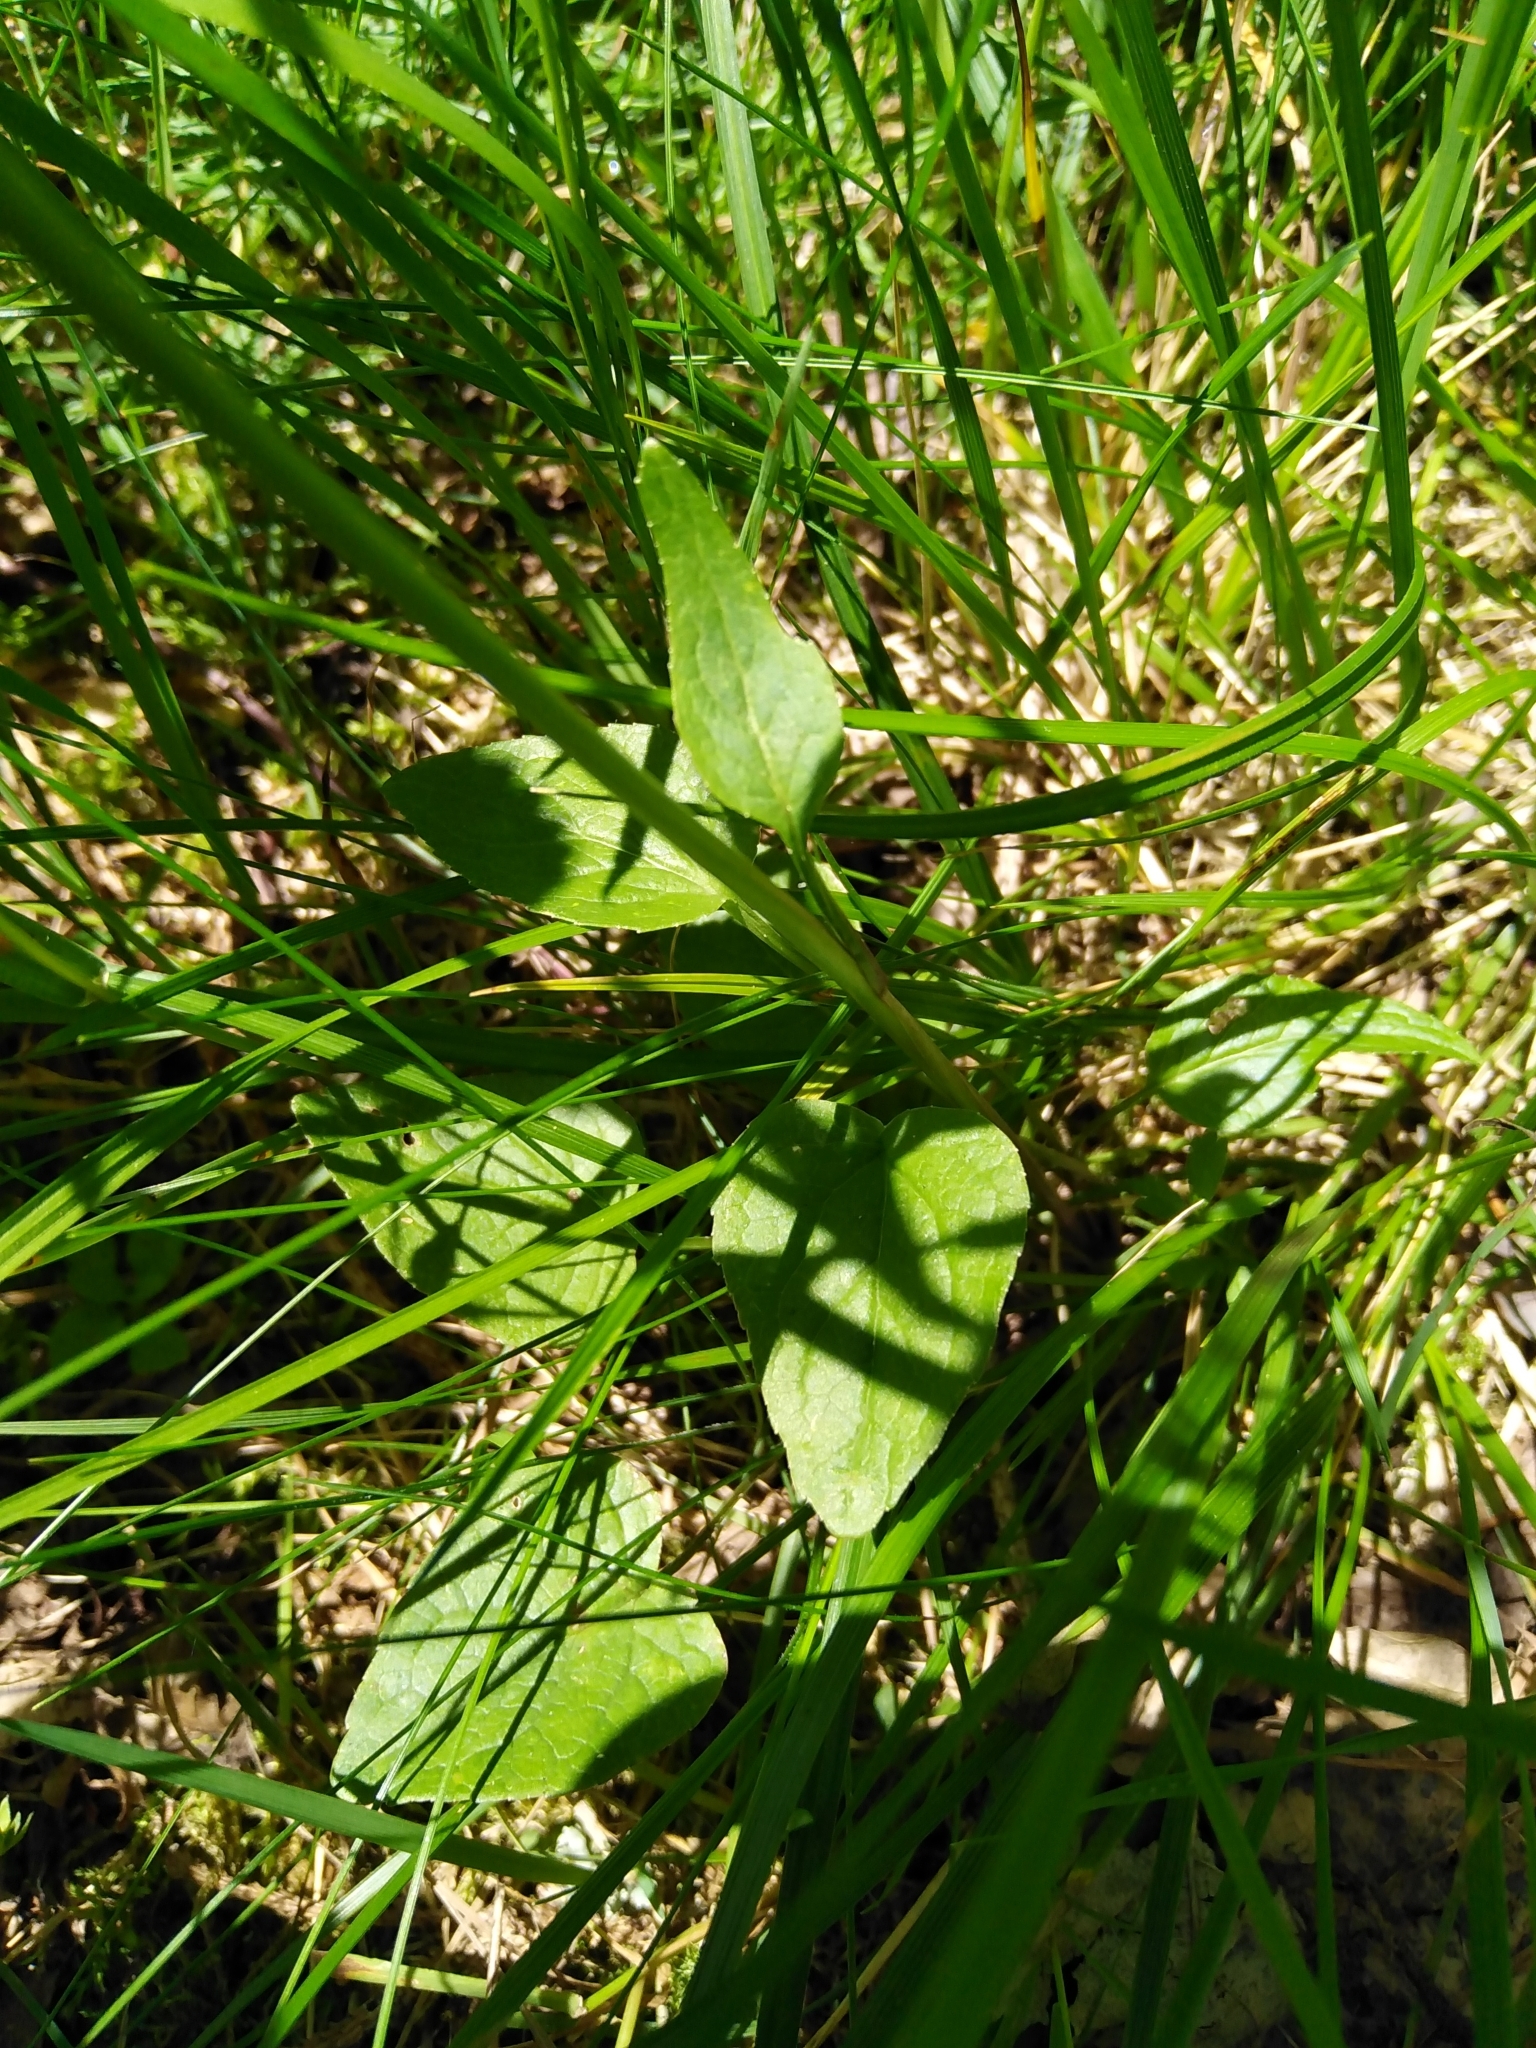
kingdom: Plantae
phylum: Tracheophyta
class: Magnoliopsida
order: Asterales
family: Campanulaceae
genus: Phyteuma
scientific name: Phyteuma nigrum
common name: Black rampion
